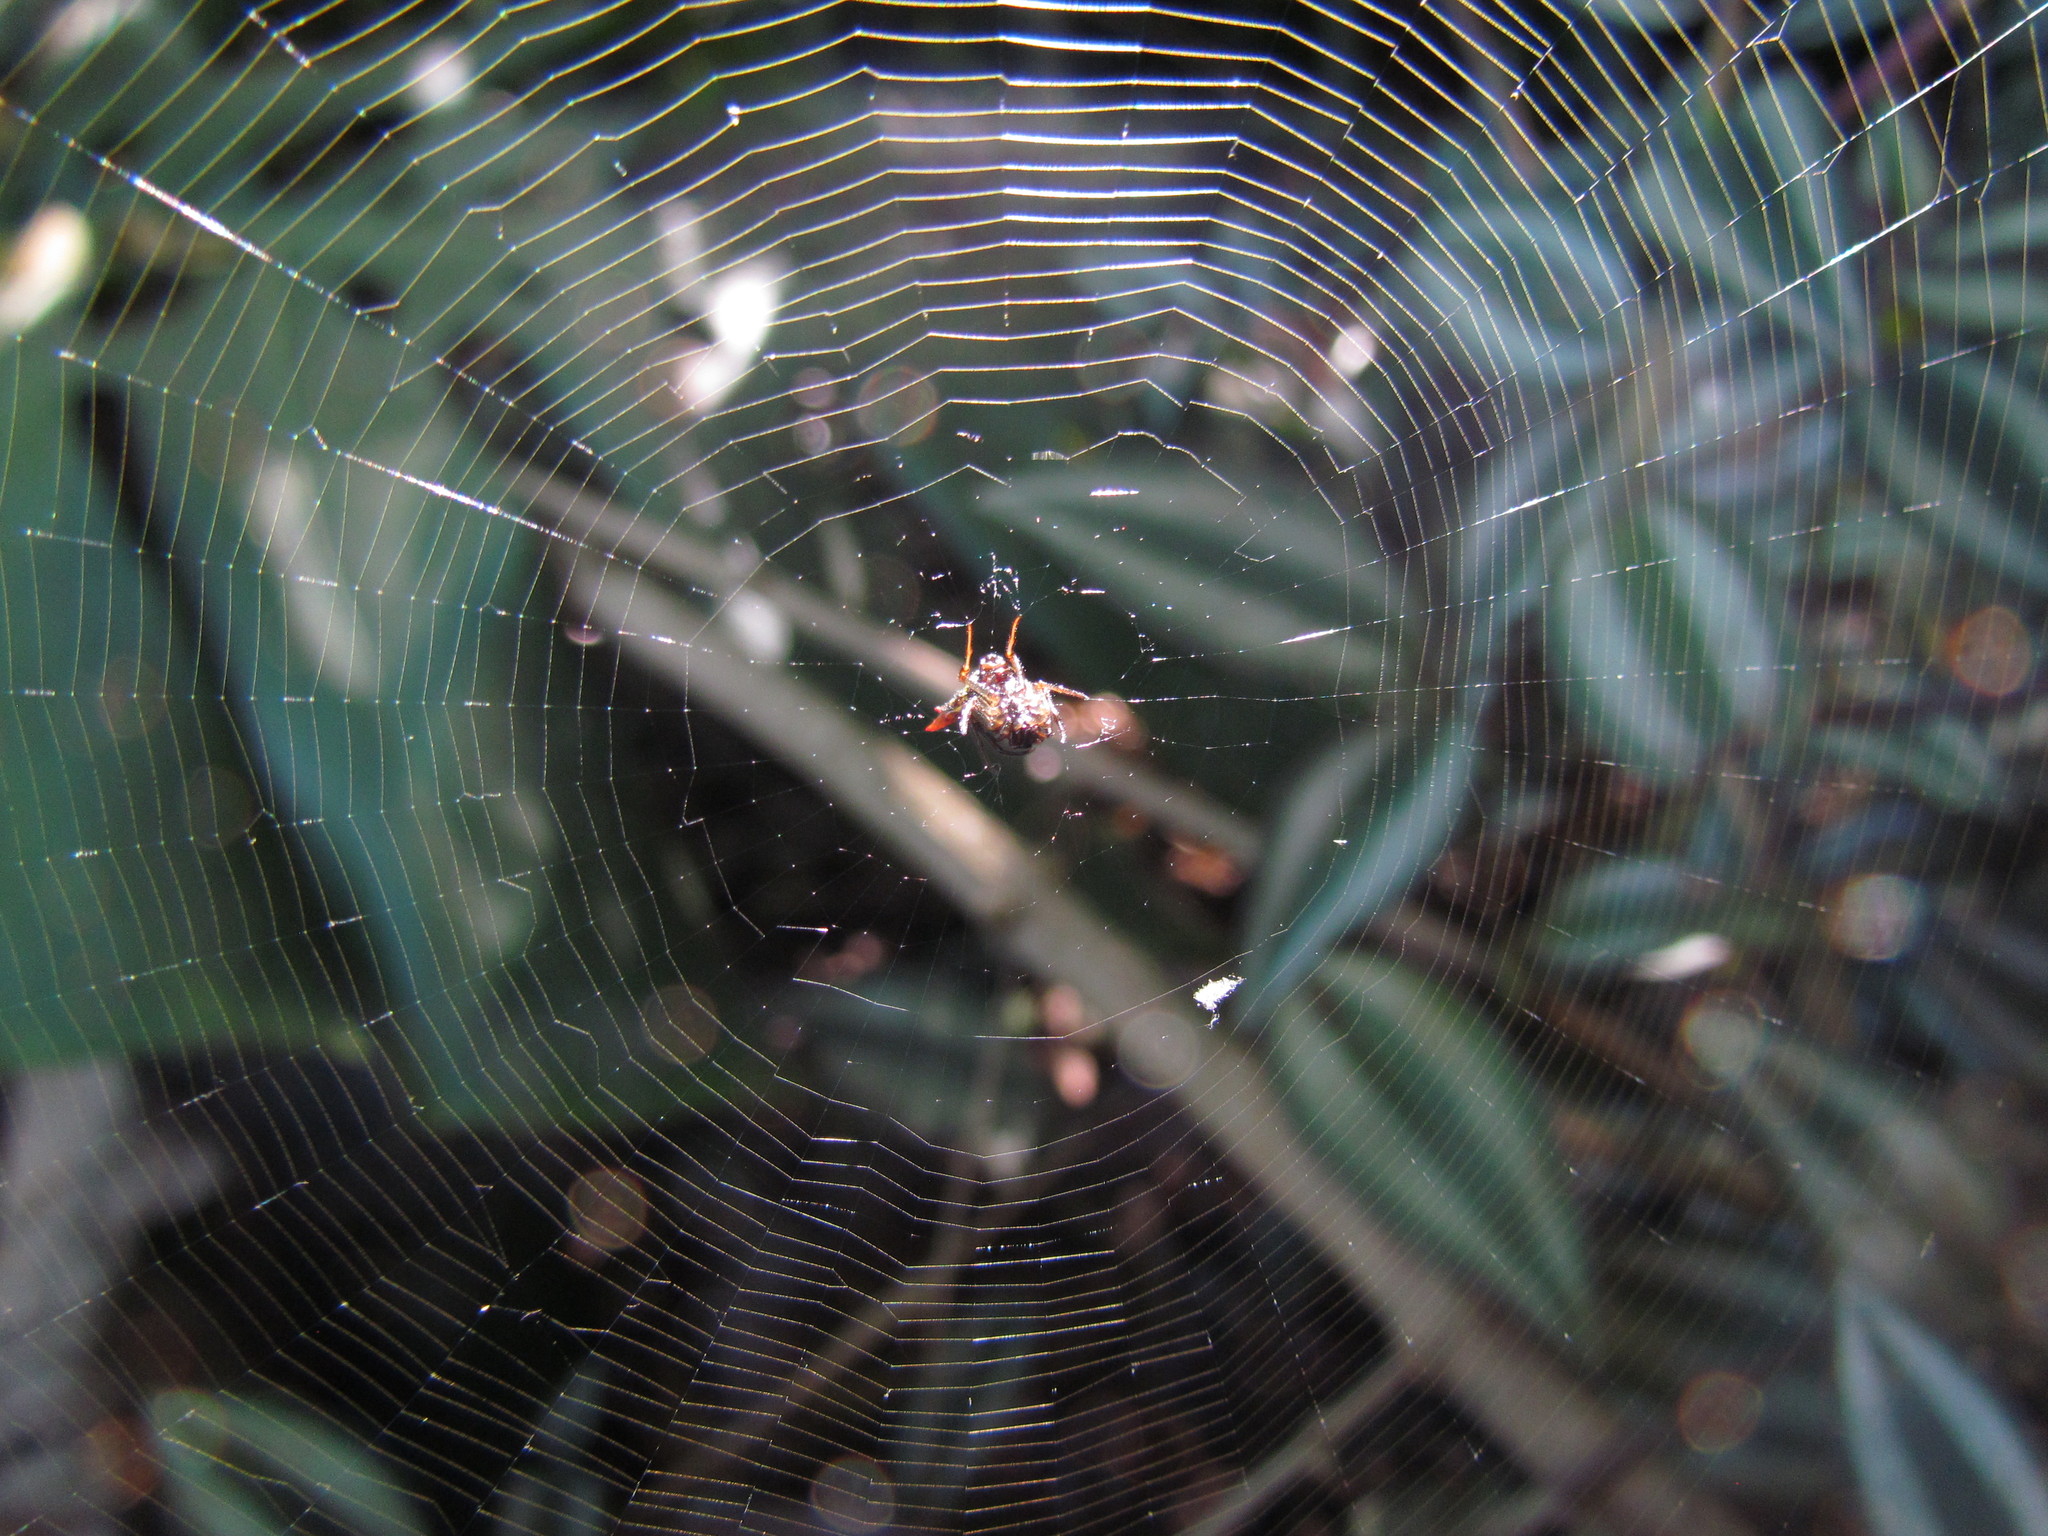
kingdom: Animalia
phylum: Arthropoda
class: Arachnida
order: Araneae
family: Araneidae
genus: Micrathena
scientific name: Micrathena plana
